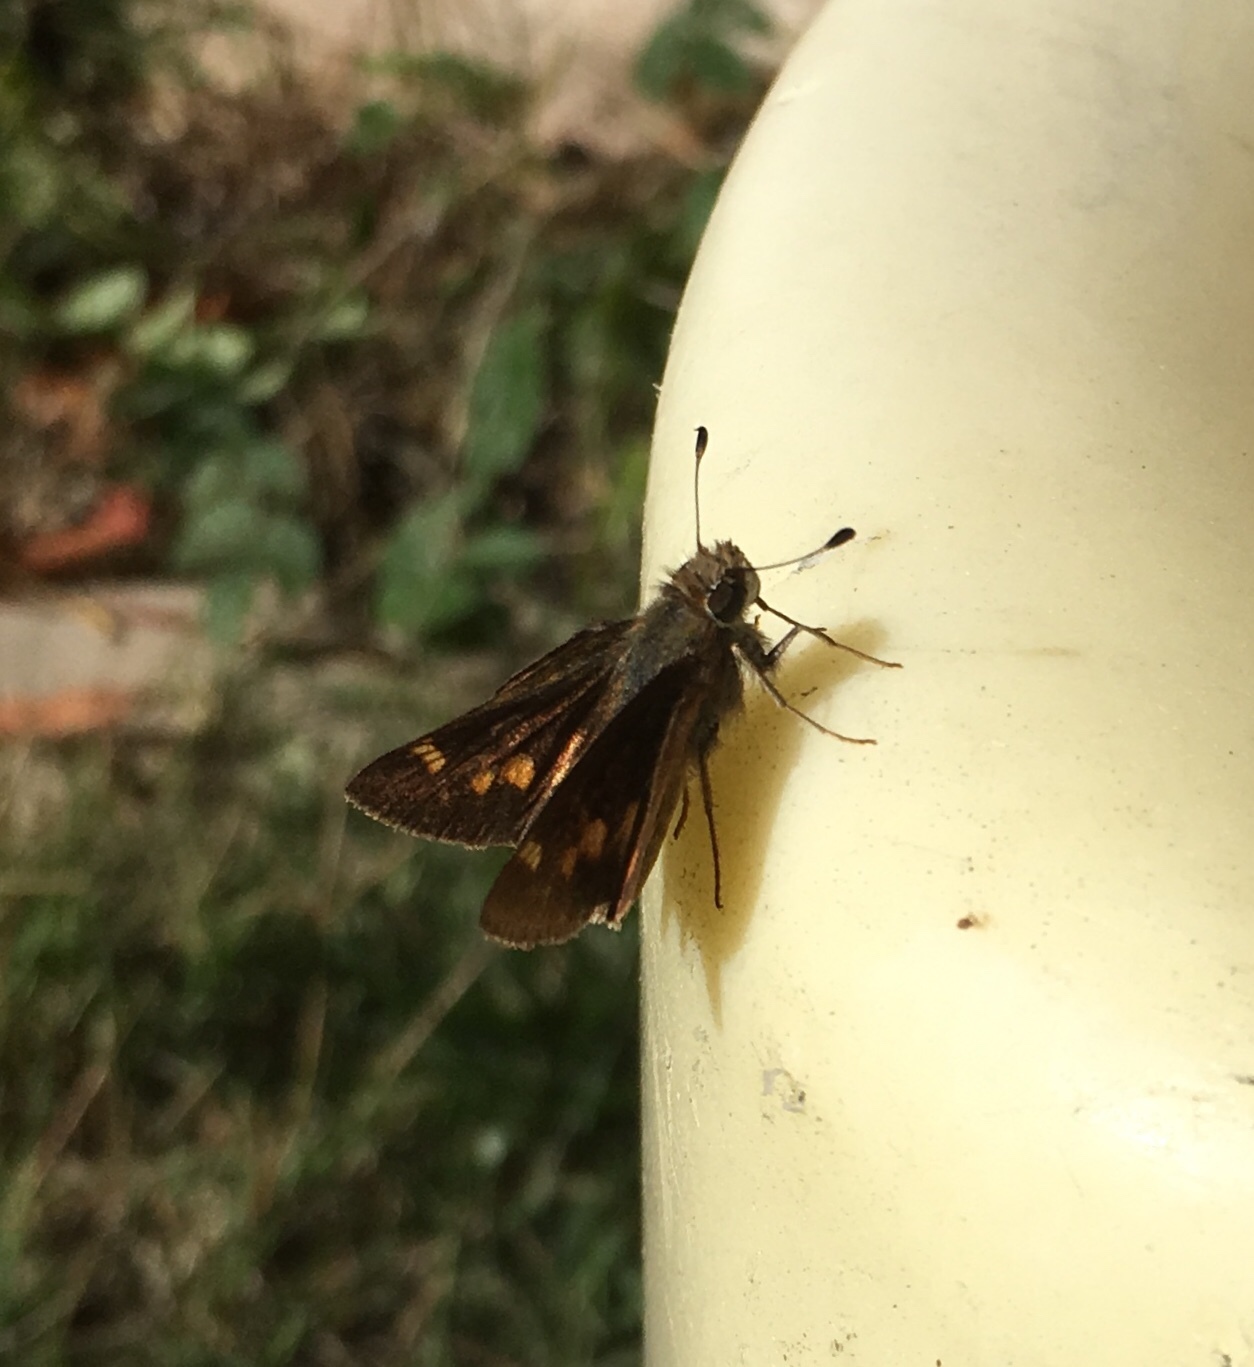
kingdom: Animalia
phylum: Arthropoda
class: Insecta
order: Lepidoptera
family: Hesperiidae
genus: Lon
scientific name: Lon melane
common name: Umber skipper
